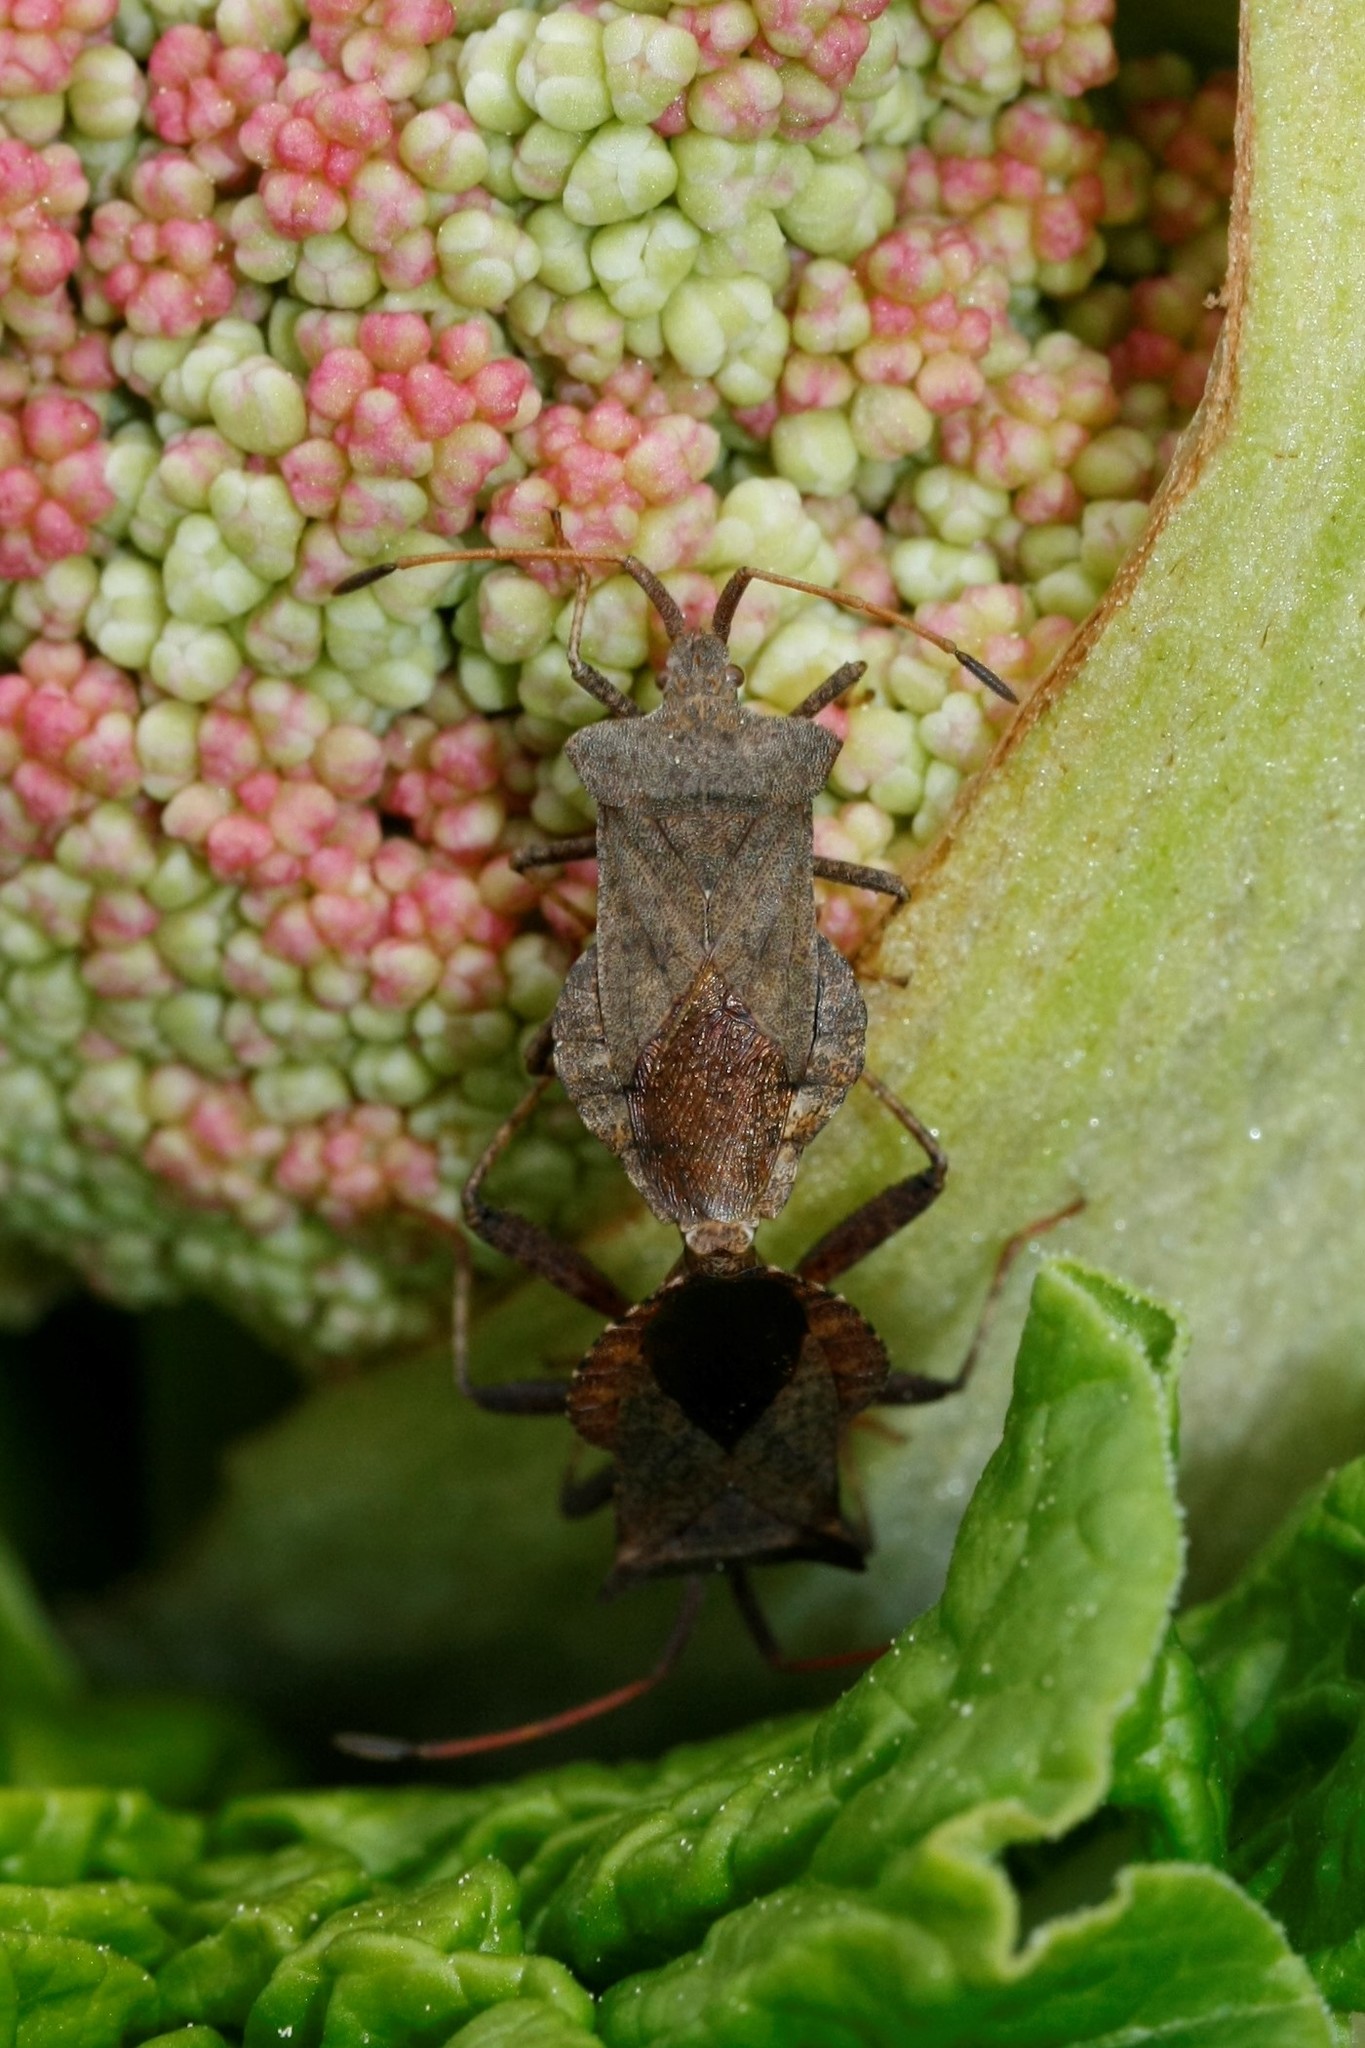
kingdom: Animalia
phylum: Arthropoda
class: Insecta
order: Hemiptera
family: Coreidae
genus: Coreus
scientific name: Coreus marginatus
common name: Dock bug
